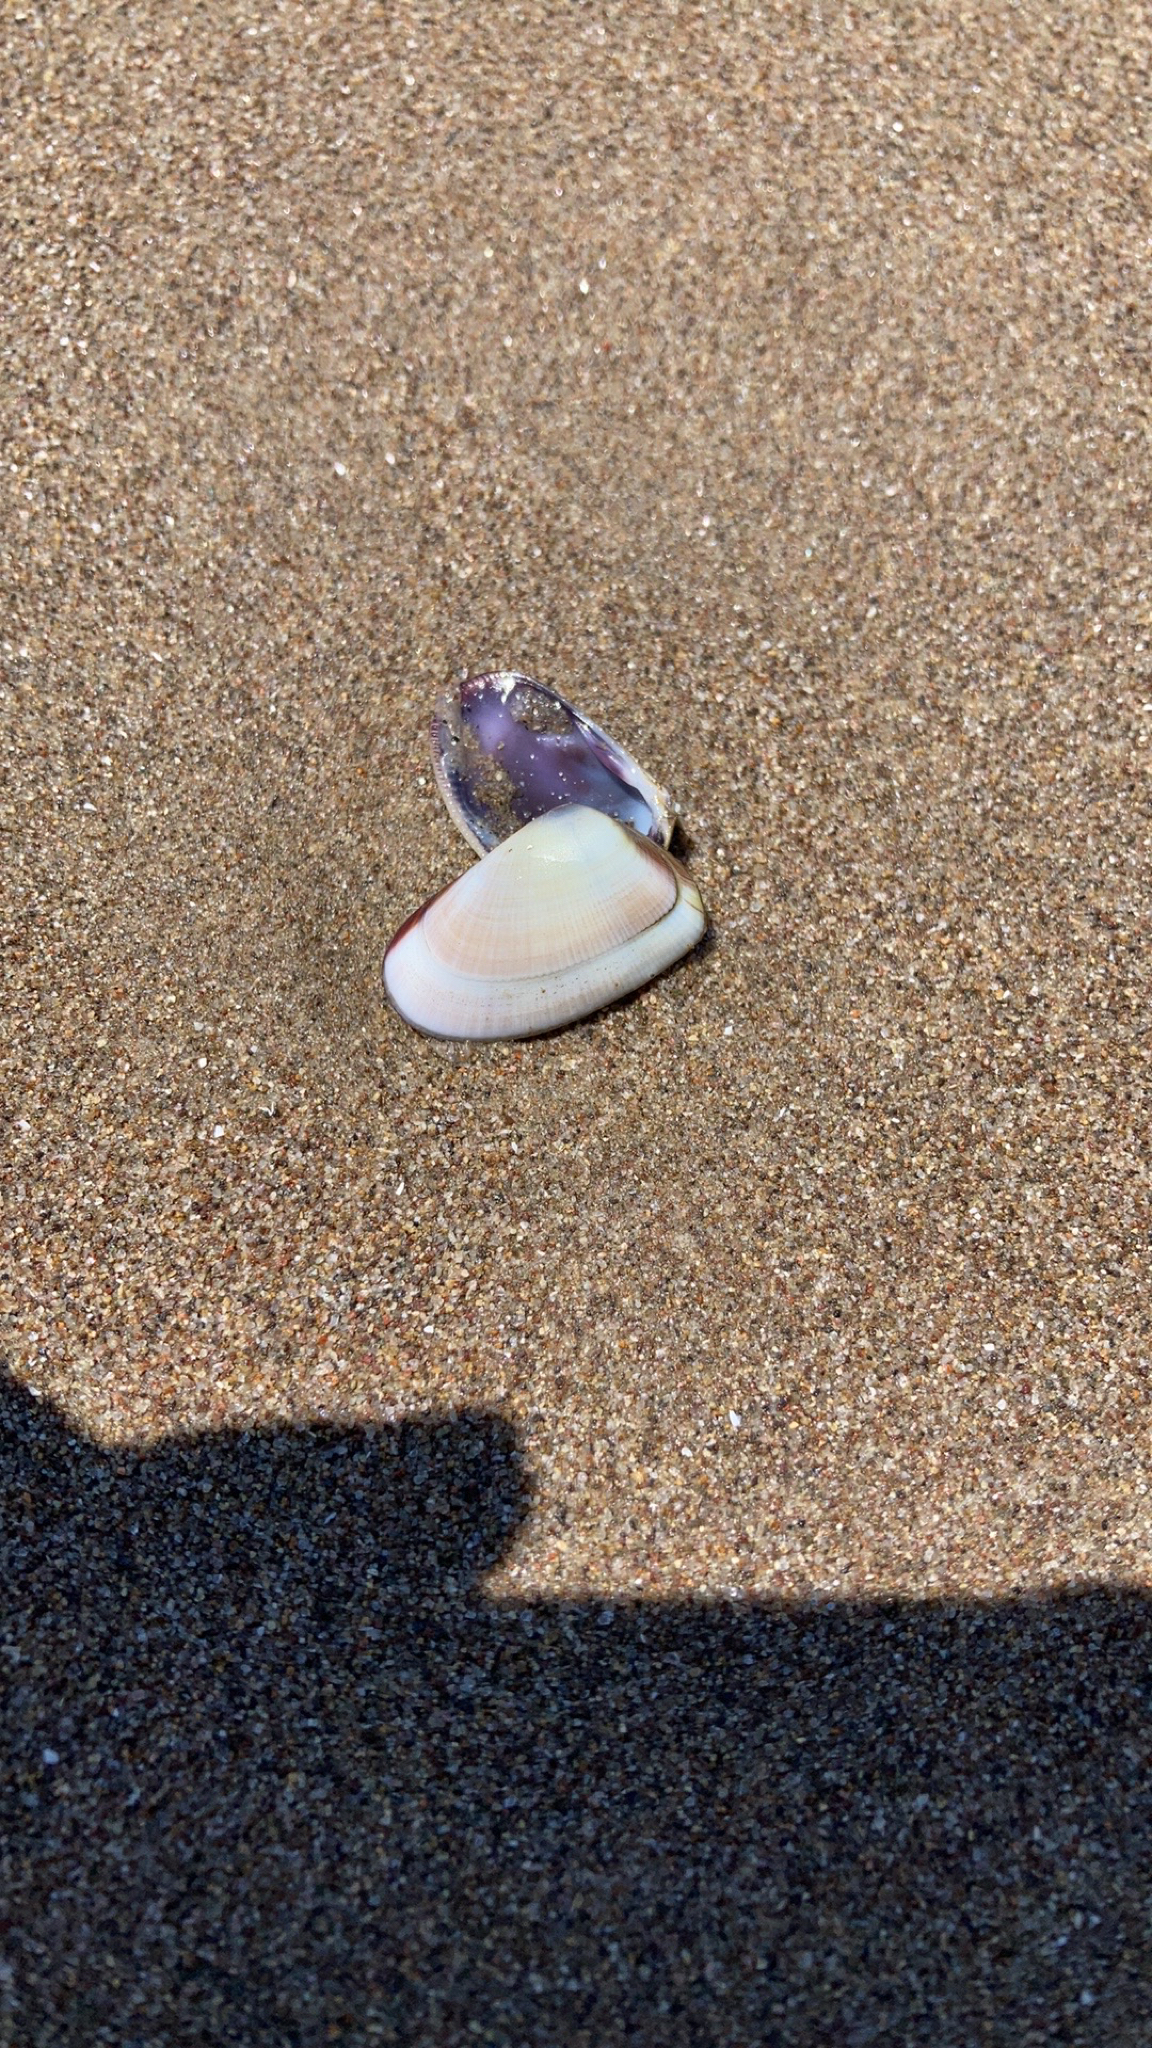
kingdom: Animalia
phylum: Mollusca
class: Bivalvia
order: Cardiida
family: Donacidae
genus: Donax
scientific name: Donax gouldii
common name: Gould beanclam
